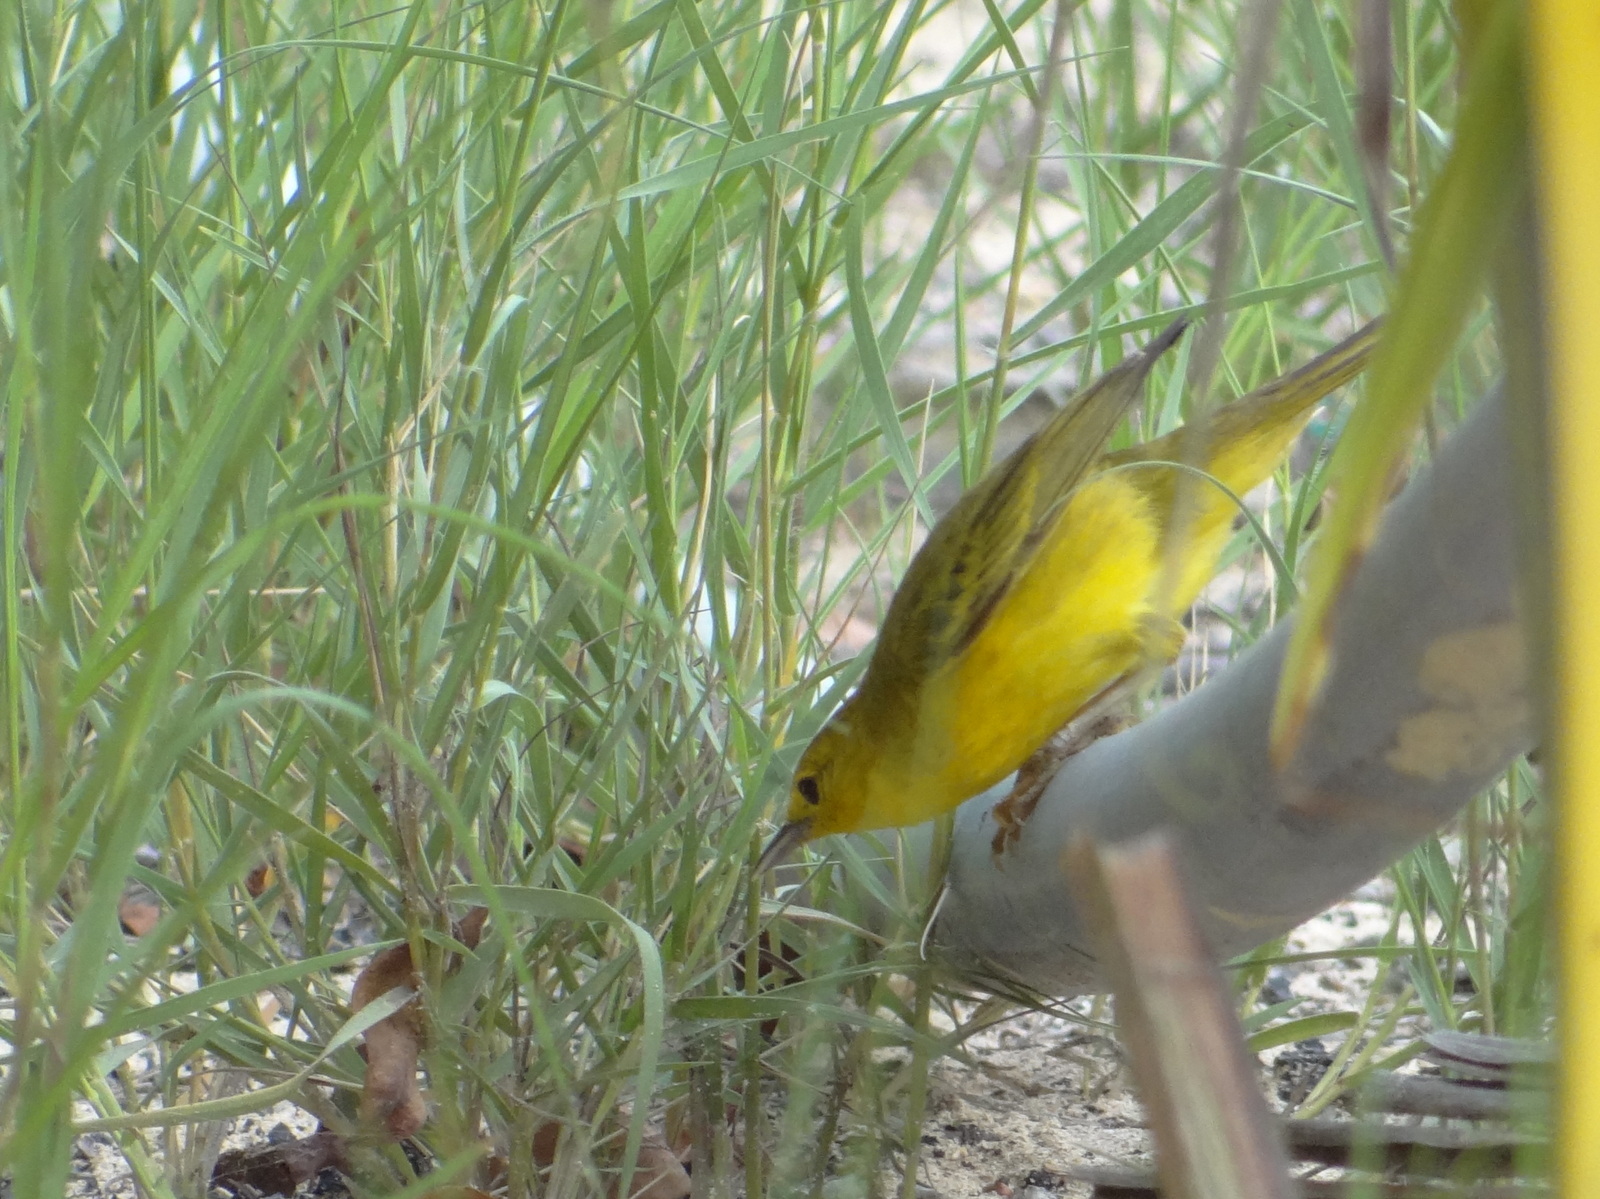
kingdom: Animalia
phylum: Chordata
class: Aves
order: Passeriformes
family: Parulidae
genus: Setophaga
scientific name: Setophaga petechia
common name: Yellow warbler
